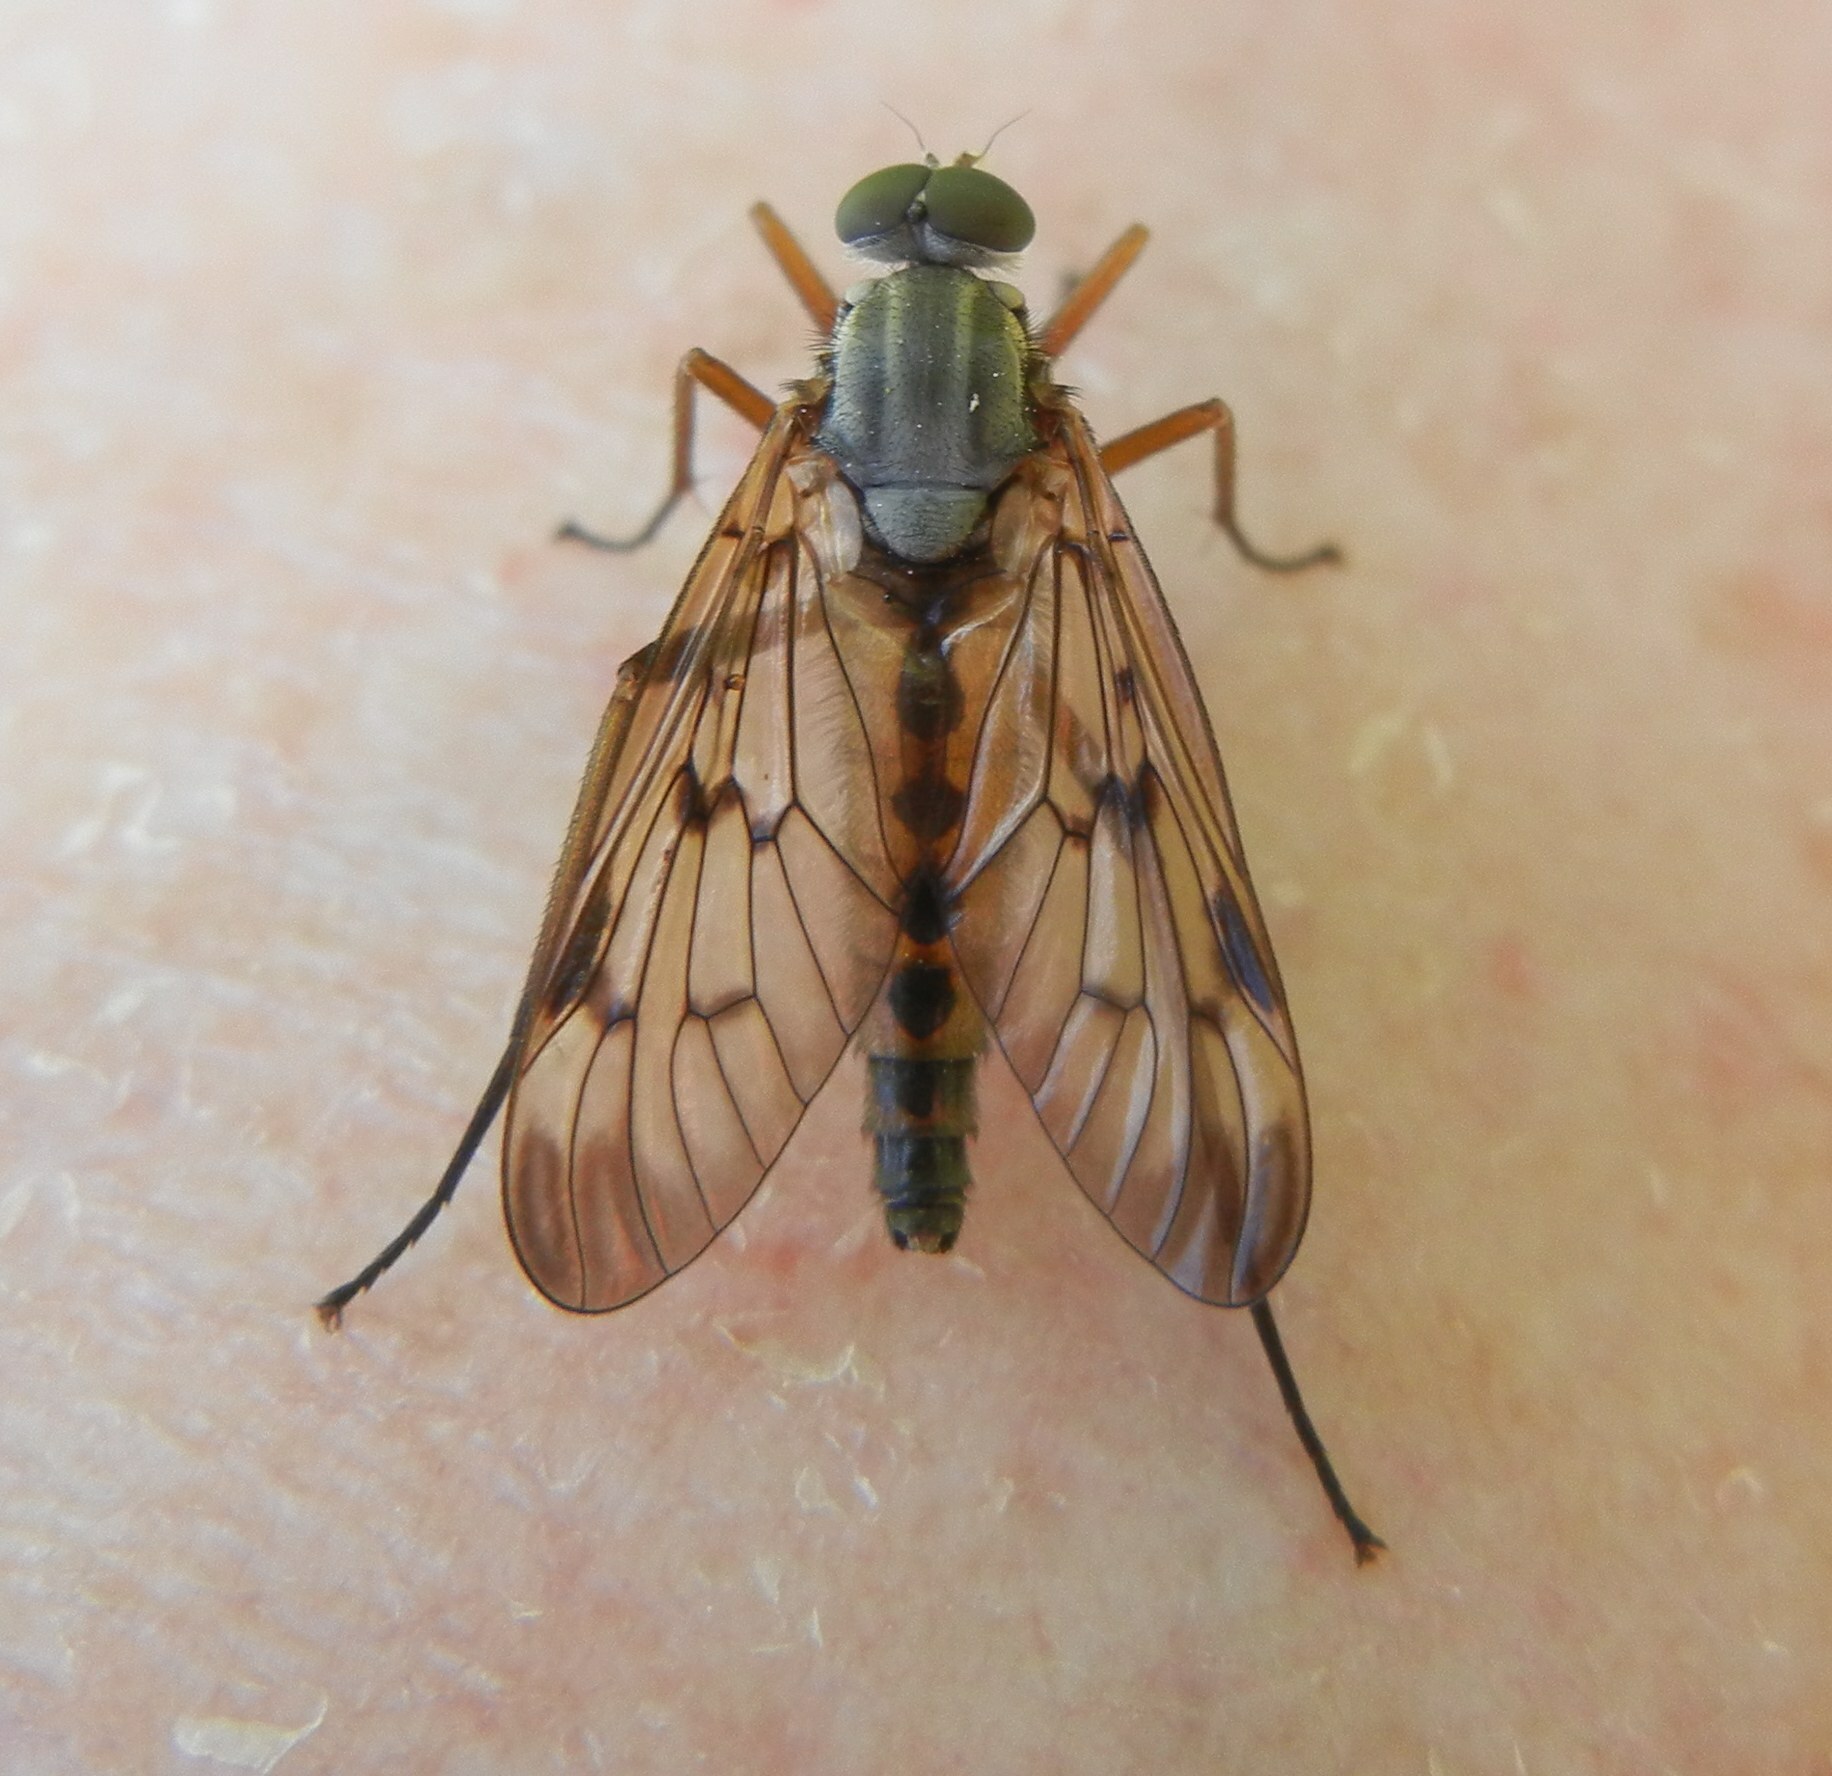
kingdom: Animalia
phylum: Arthropoda
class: Insecta
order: Diptera
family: Rhagionidae
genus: Rhagio
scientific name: Rhagio scolopacea
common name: Downlooker snipefly
